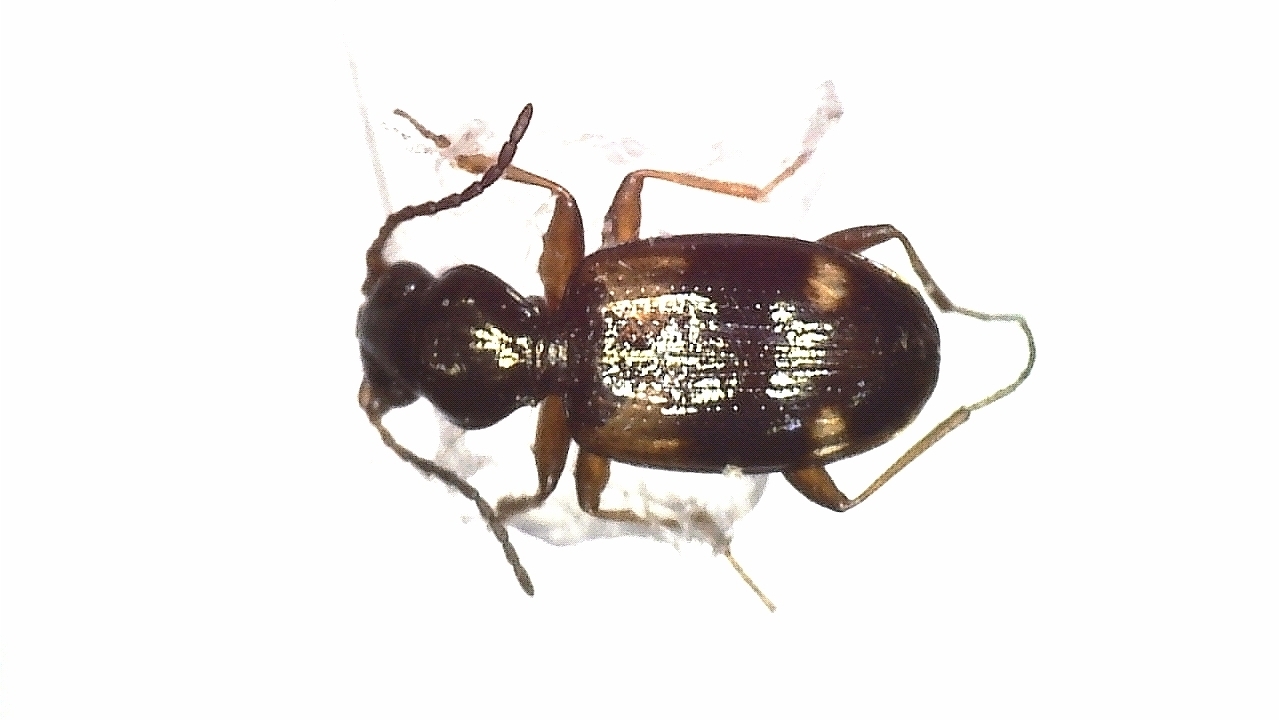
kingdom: Animalia
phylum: Arthropoda
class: Insecta
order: Coleoptera
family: Carabidae
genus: Bembidion
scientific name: Bembidion quadrimaculatum
